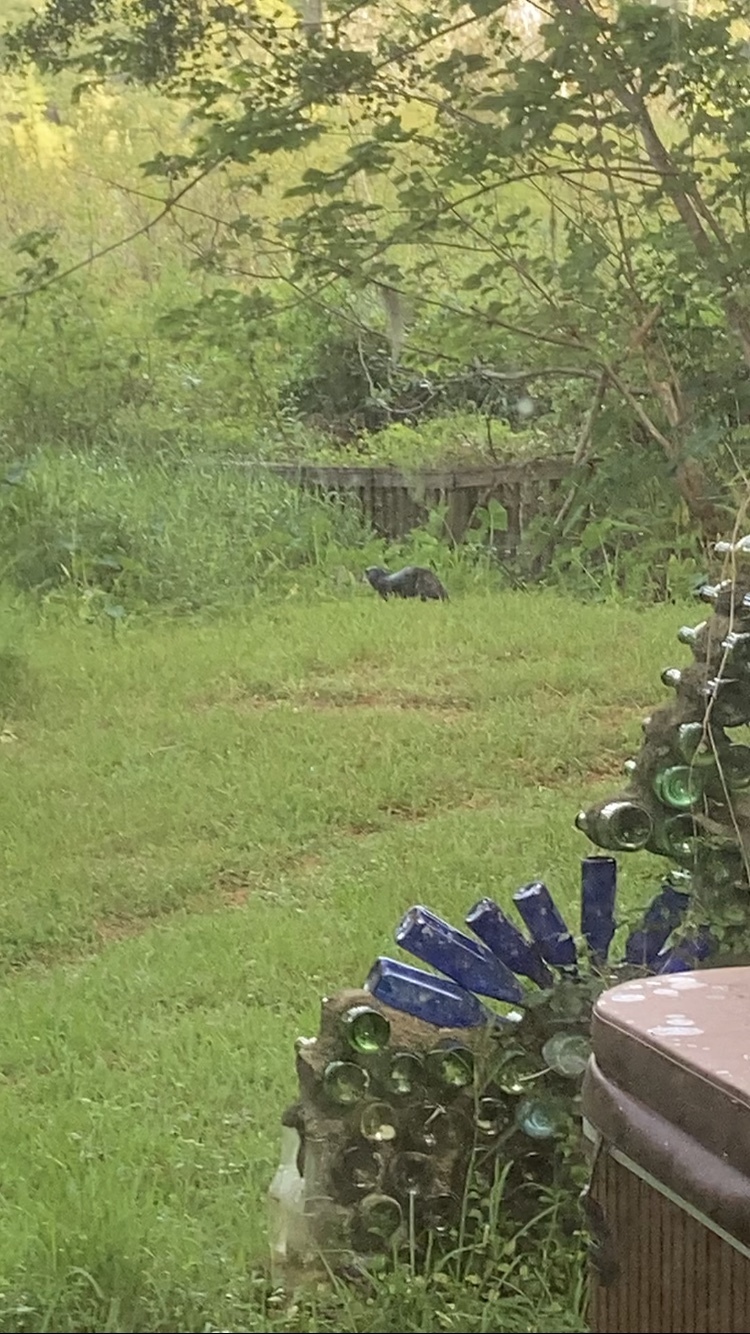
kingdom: Animalia
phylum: Chordata
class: Mammalia
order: Carnivora
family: Mustelidae
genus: Lontra
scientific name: Lontra canadensis
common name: North american river otter
